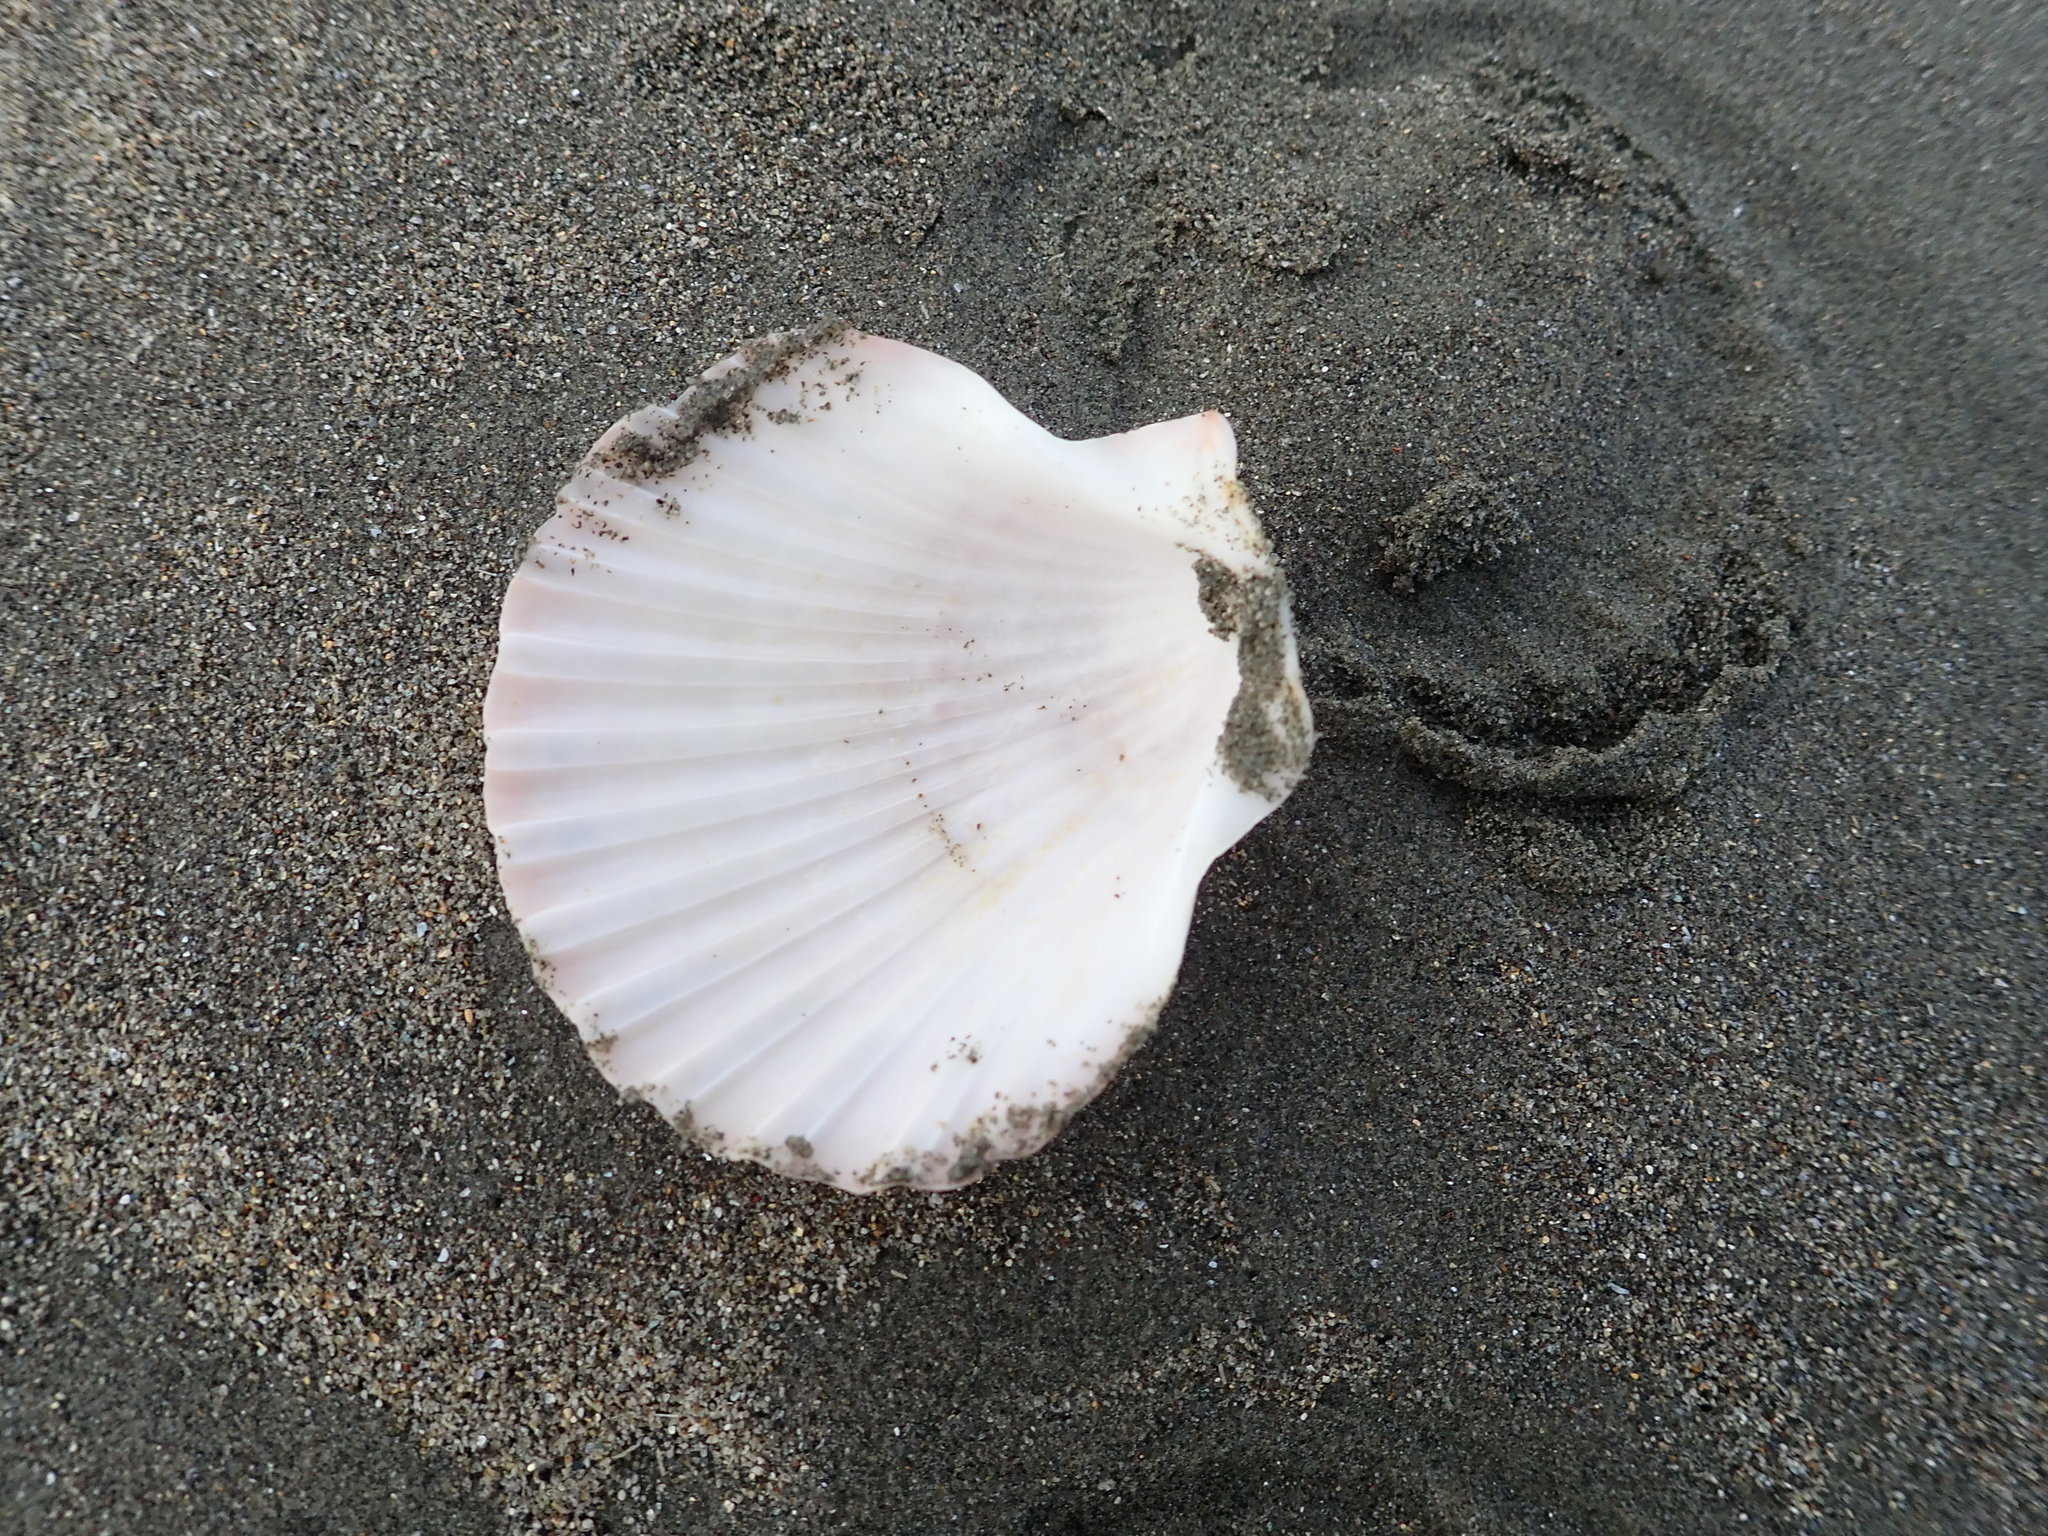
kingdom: Animalia
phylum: Mollusca
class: Bivalvia
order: Pectinida
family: Pectinidae
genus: Pecten
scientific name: Pecten novaezelandiae
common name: New zealand scallop
